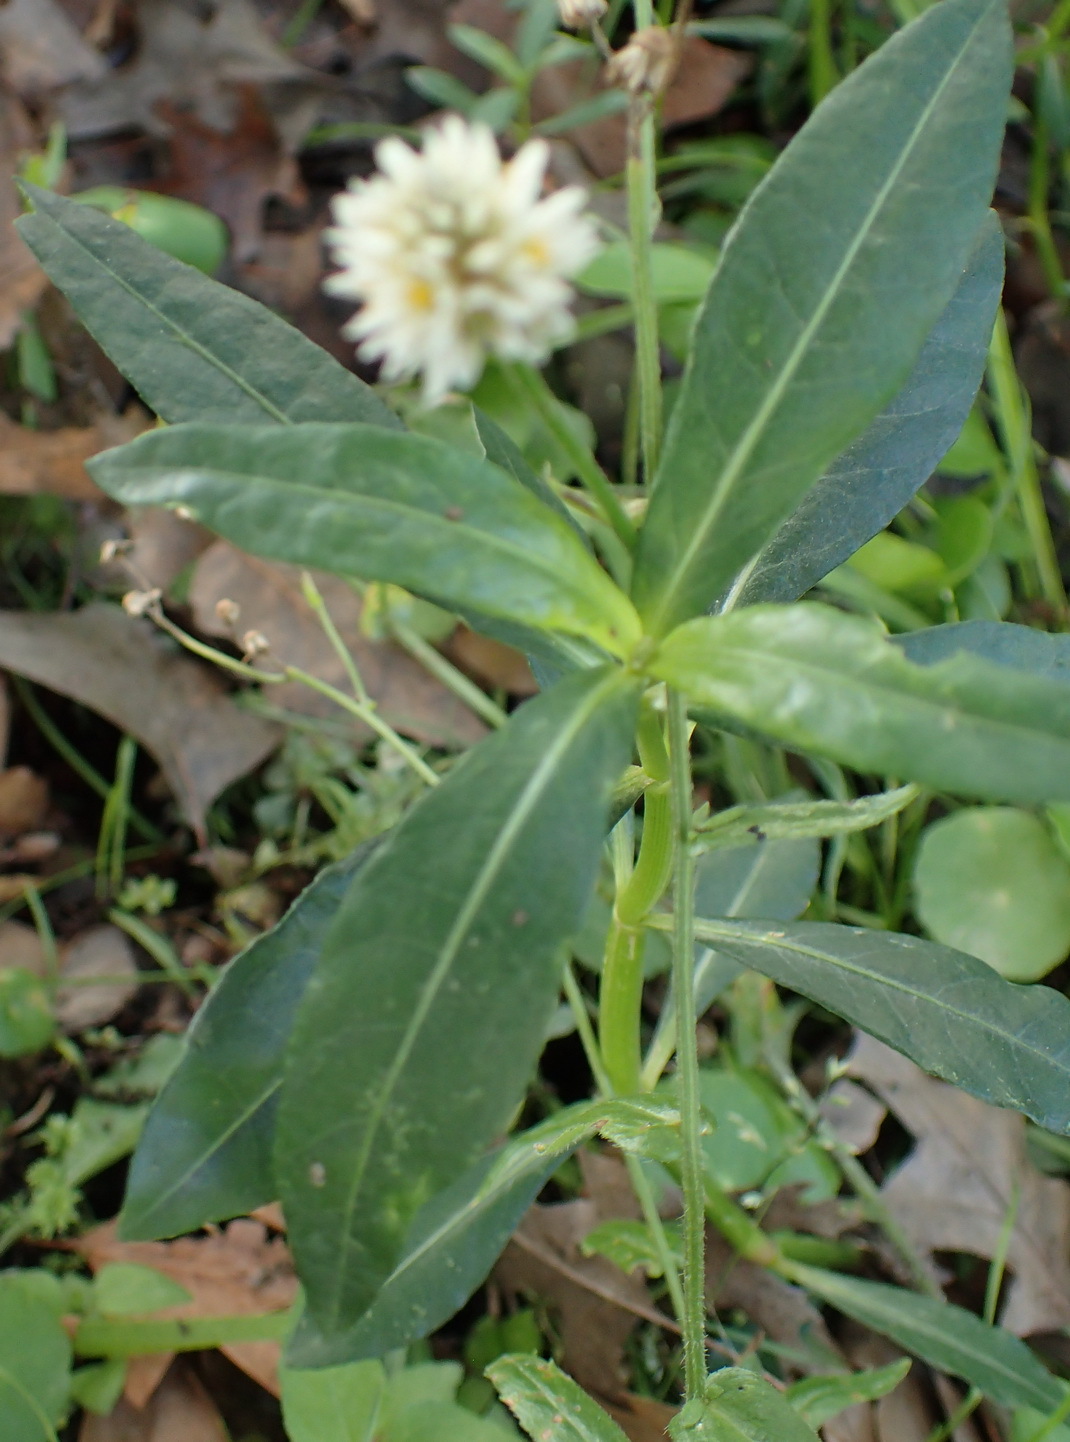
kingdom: Plantae
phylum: Tracheophyta
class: Magnoliopsida
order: Caryophyllales
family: Amaranthaceae
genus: Alternanthera
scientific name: Alternanthera philoxeroides
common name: Alligatorweed
